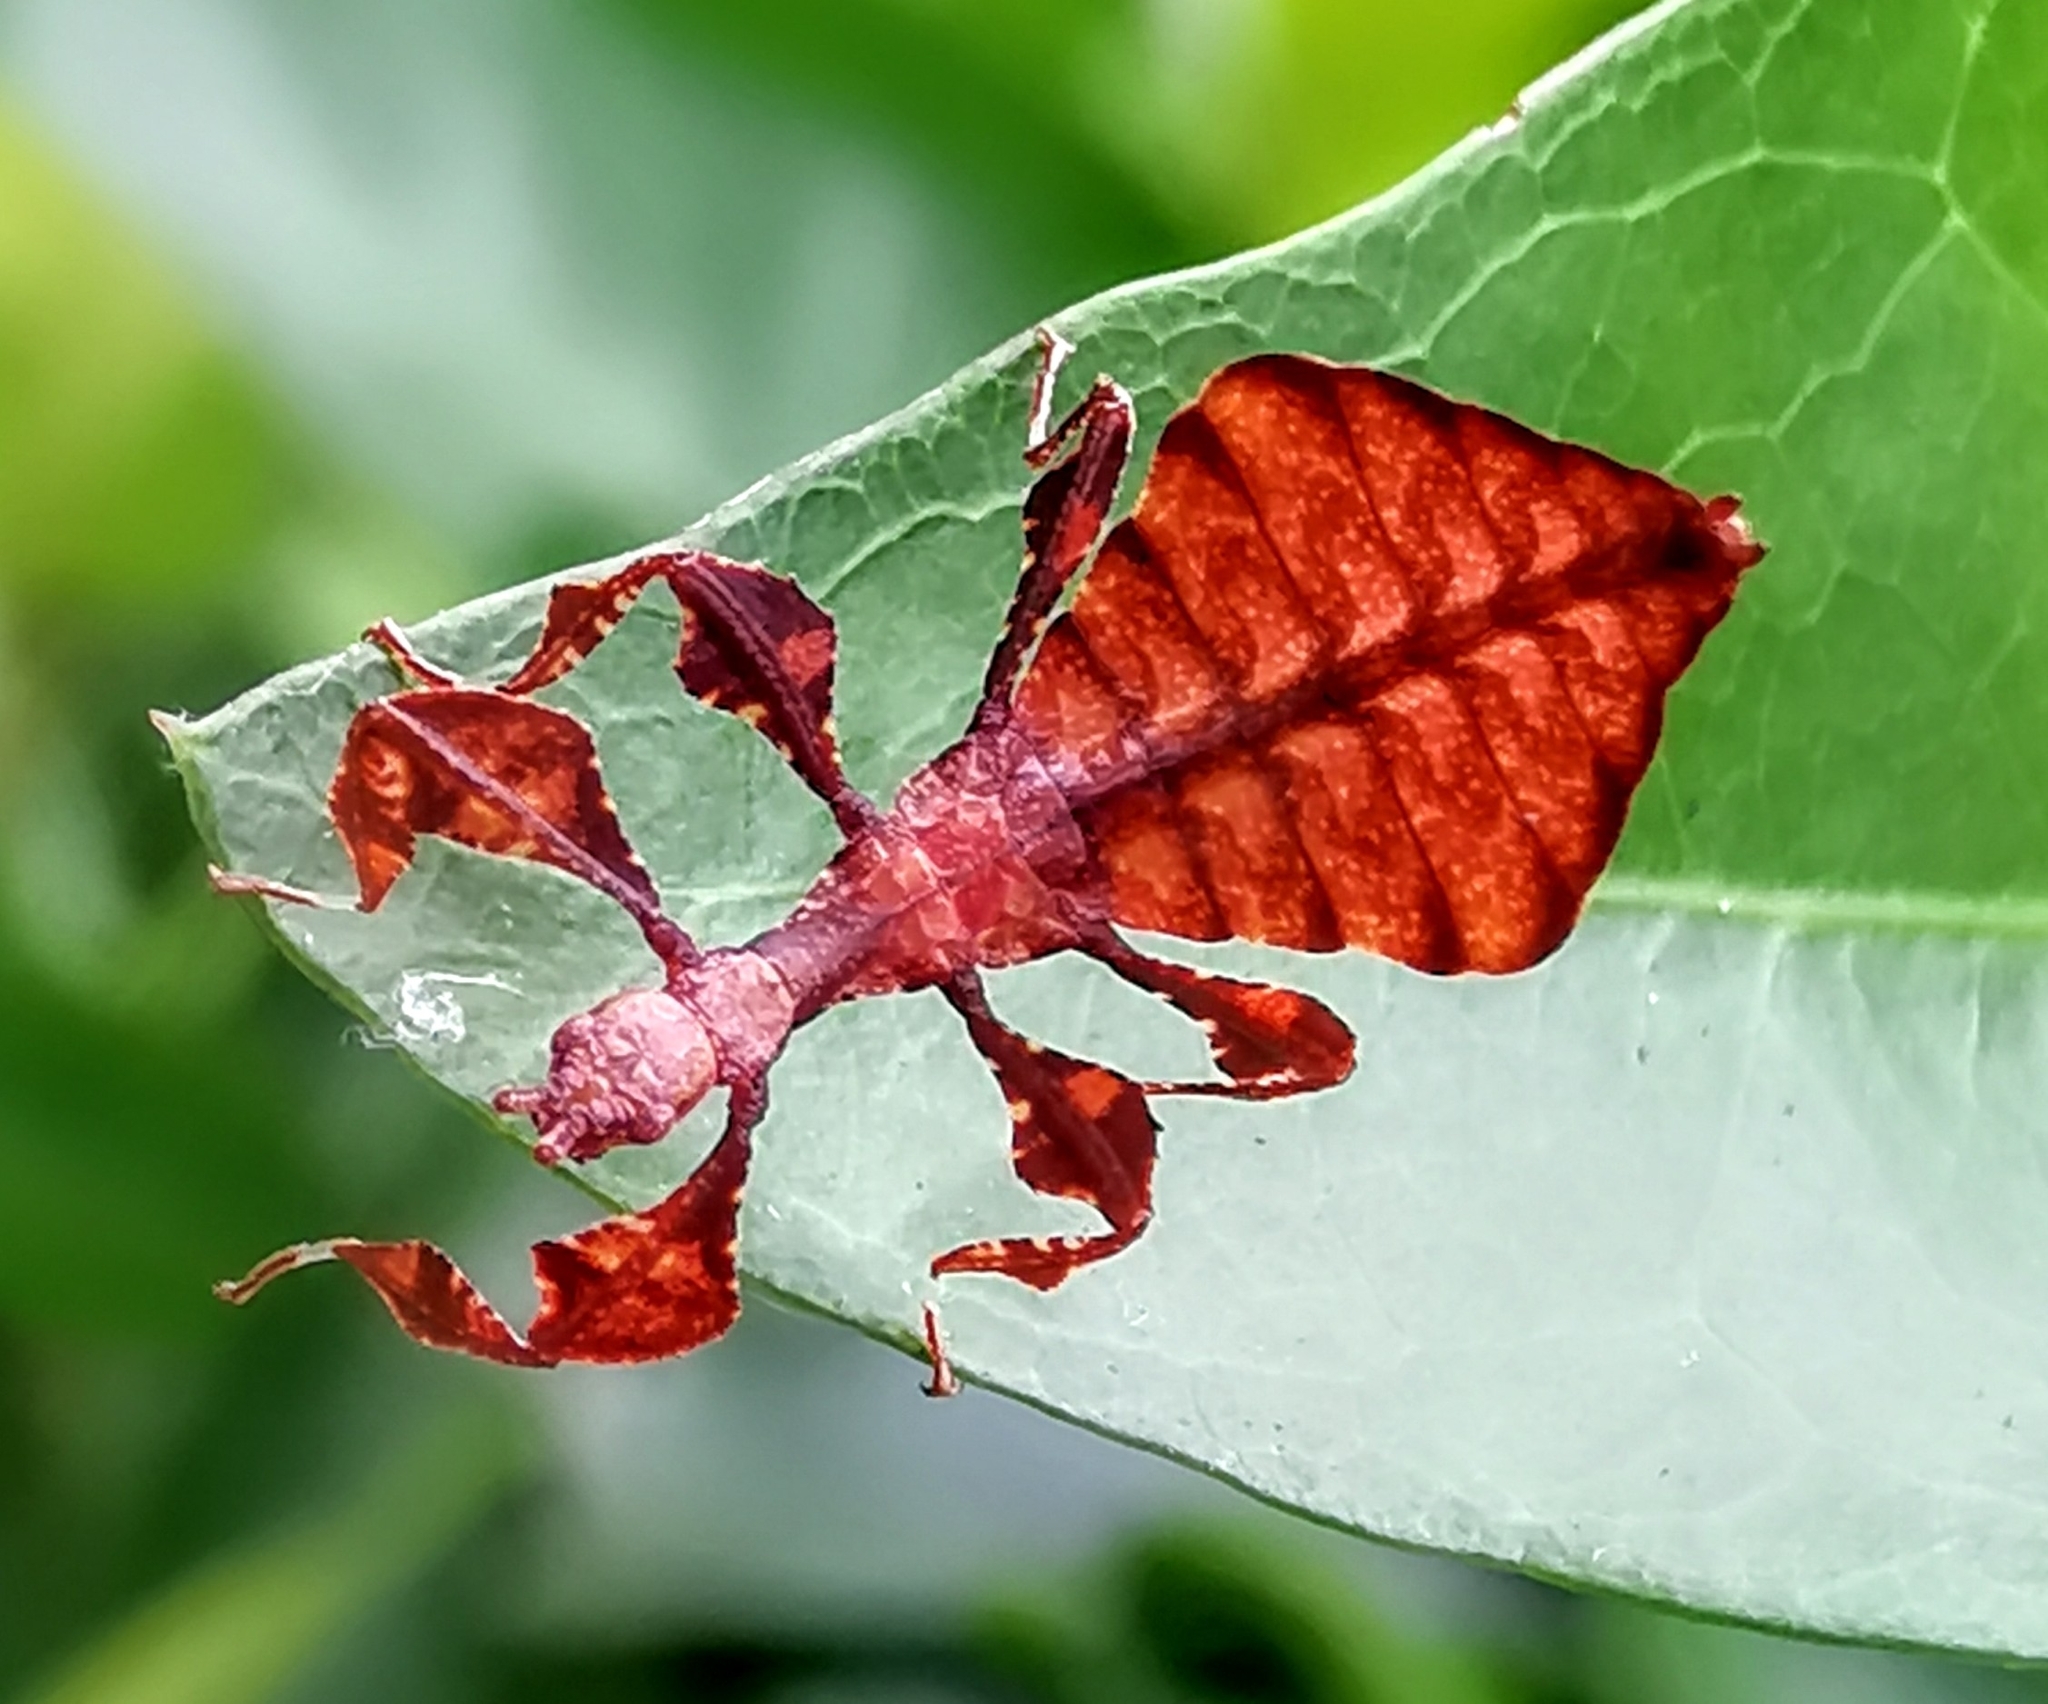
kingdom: Animalia
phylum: Arthropoda
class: Insecta
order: Phasmida
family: Phylliidae
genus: Pulchriphyllium
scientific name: Pulchriphyllium bioculatum
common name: Gray's leaf insect
